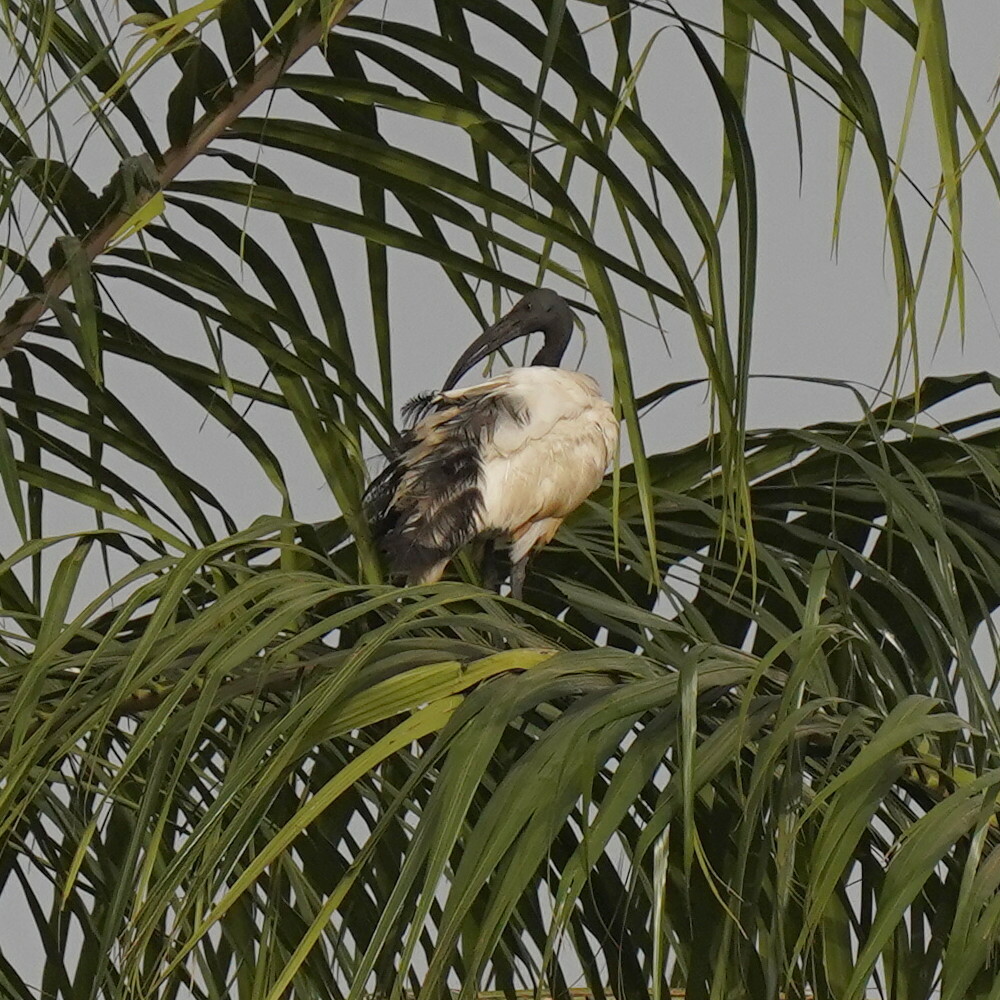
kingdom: Animalia
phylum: Chordata
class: Aves
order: Pelecaniformes
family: Threskiornithidae
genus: Threskiornis
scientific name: Threskiornis aethiopicus
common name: Sacred ibis
